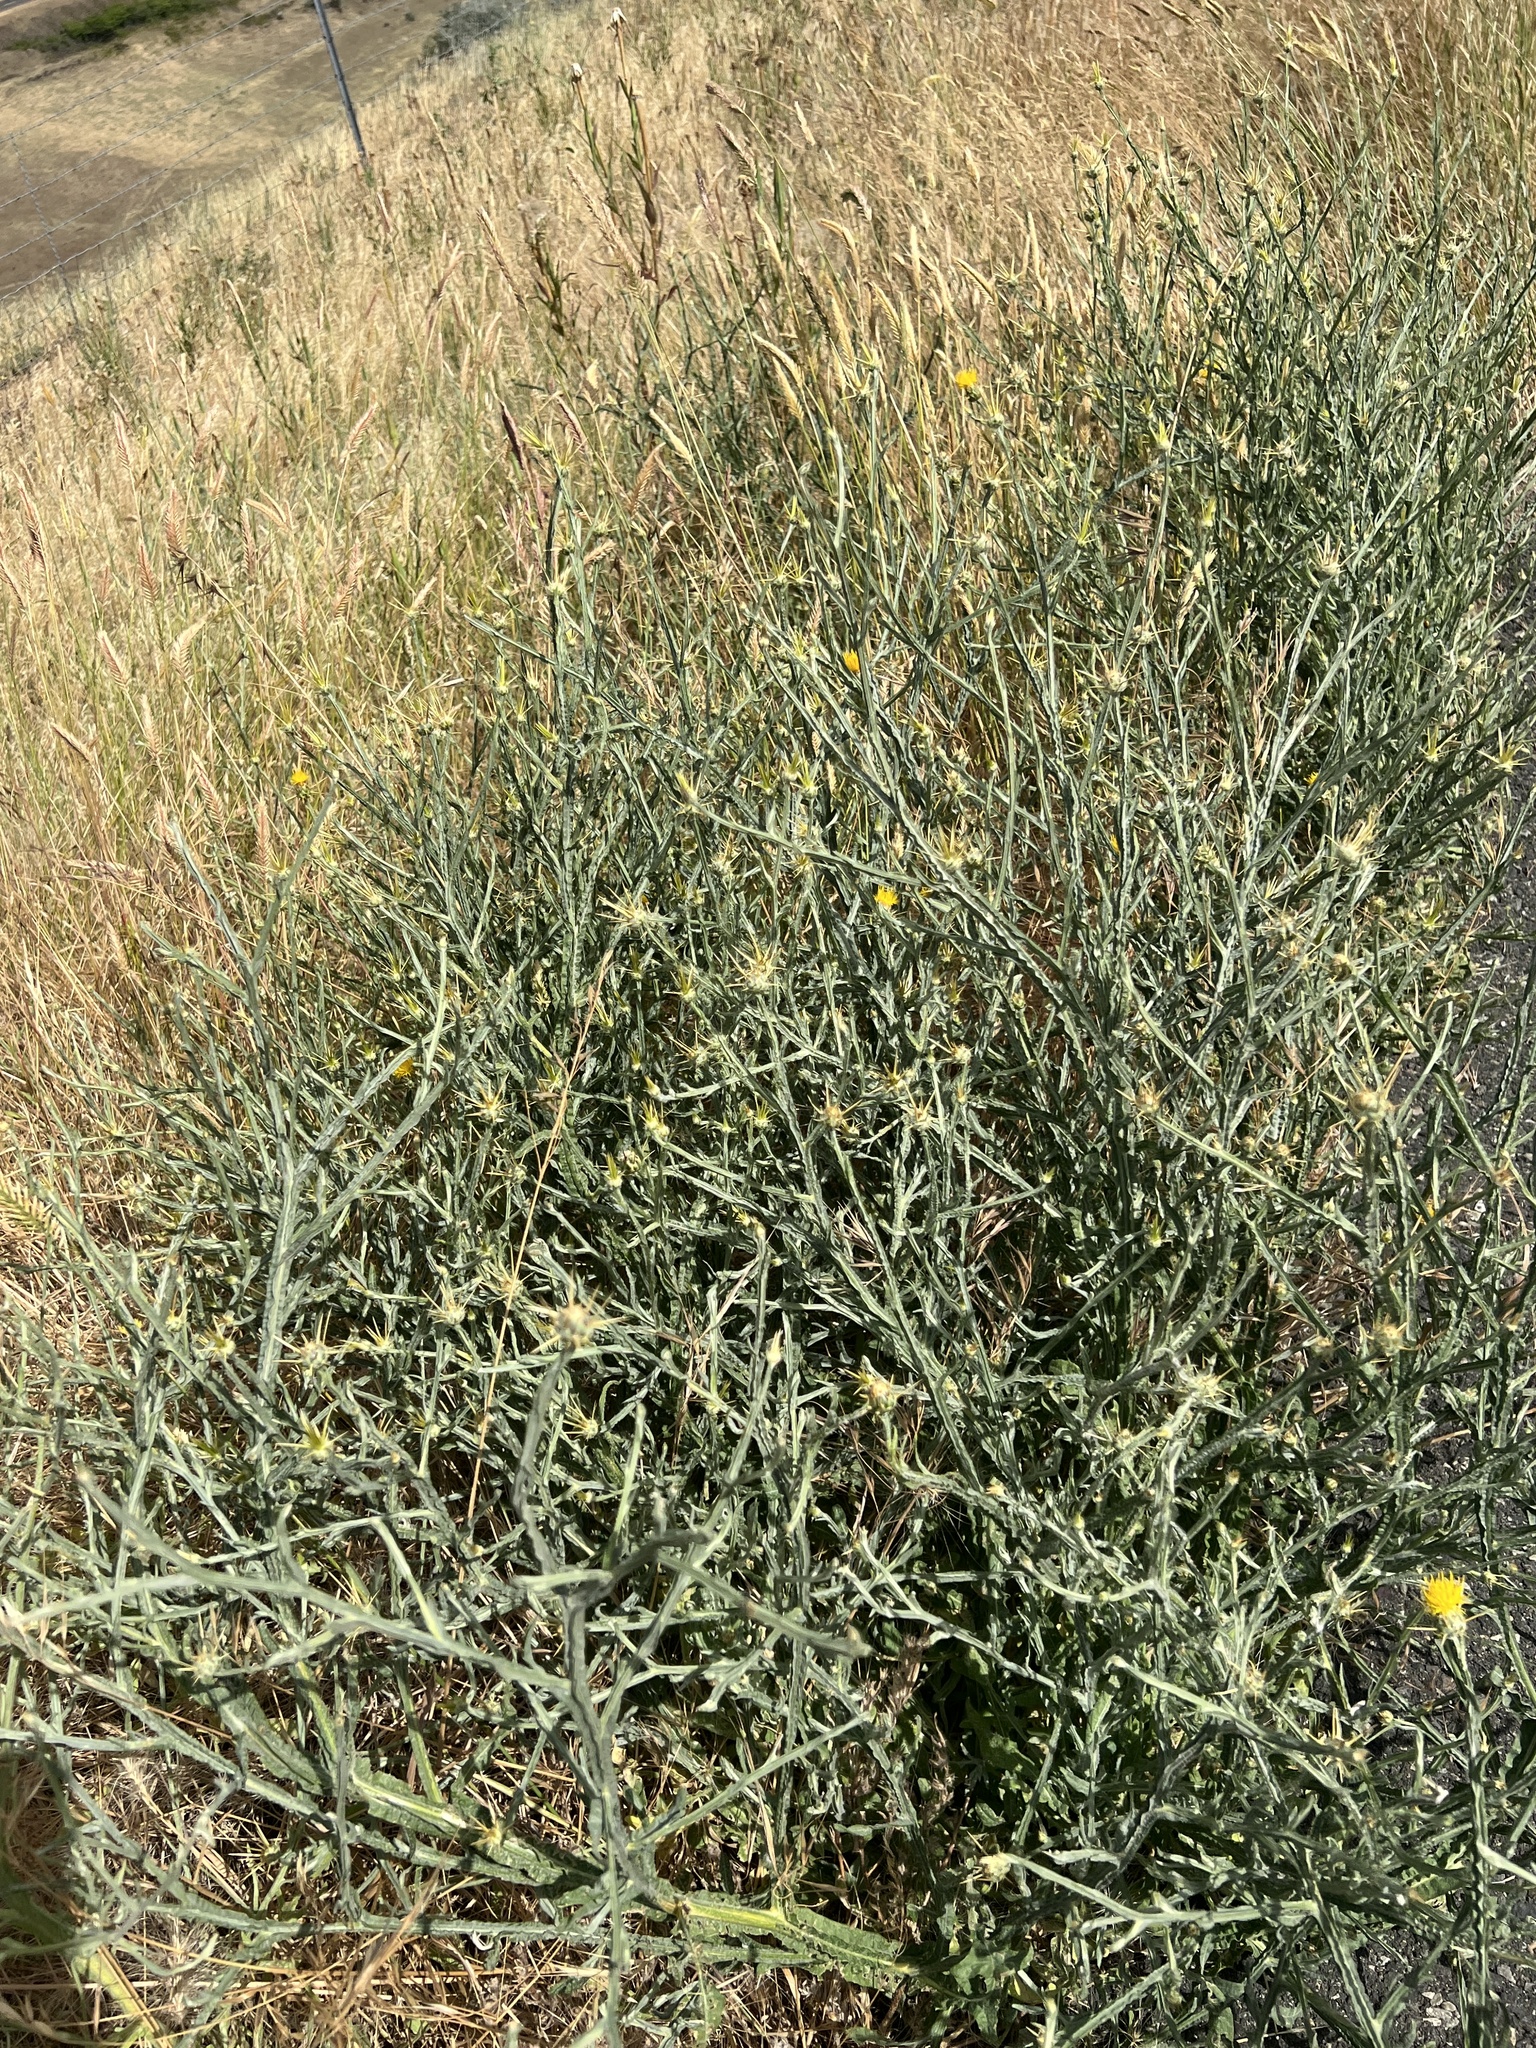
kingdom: Plantae
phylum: Tracheophyta
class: Magnoliopsida
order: Asterales
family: Asteraceae
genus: Centaurea
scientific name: Centaurea solstitialis
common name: Yellow star-thistle
